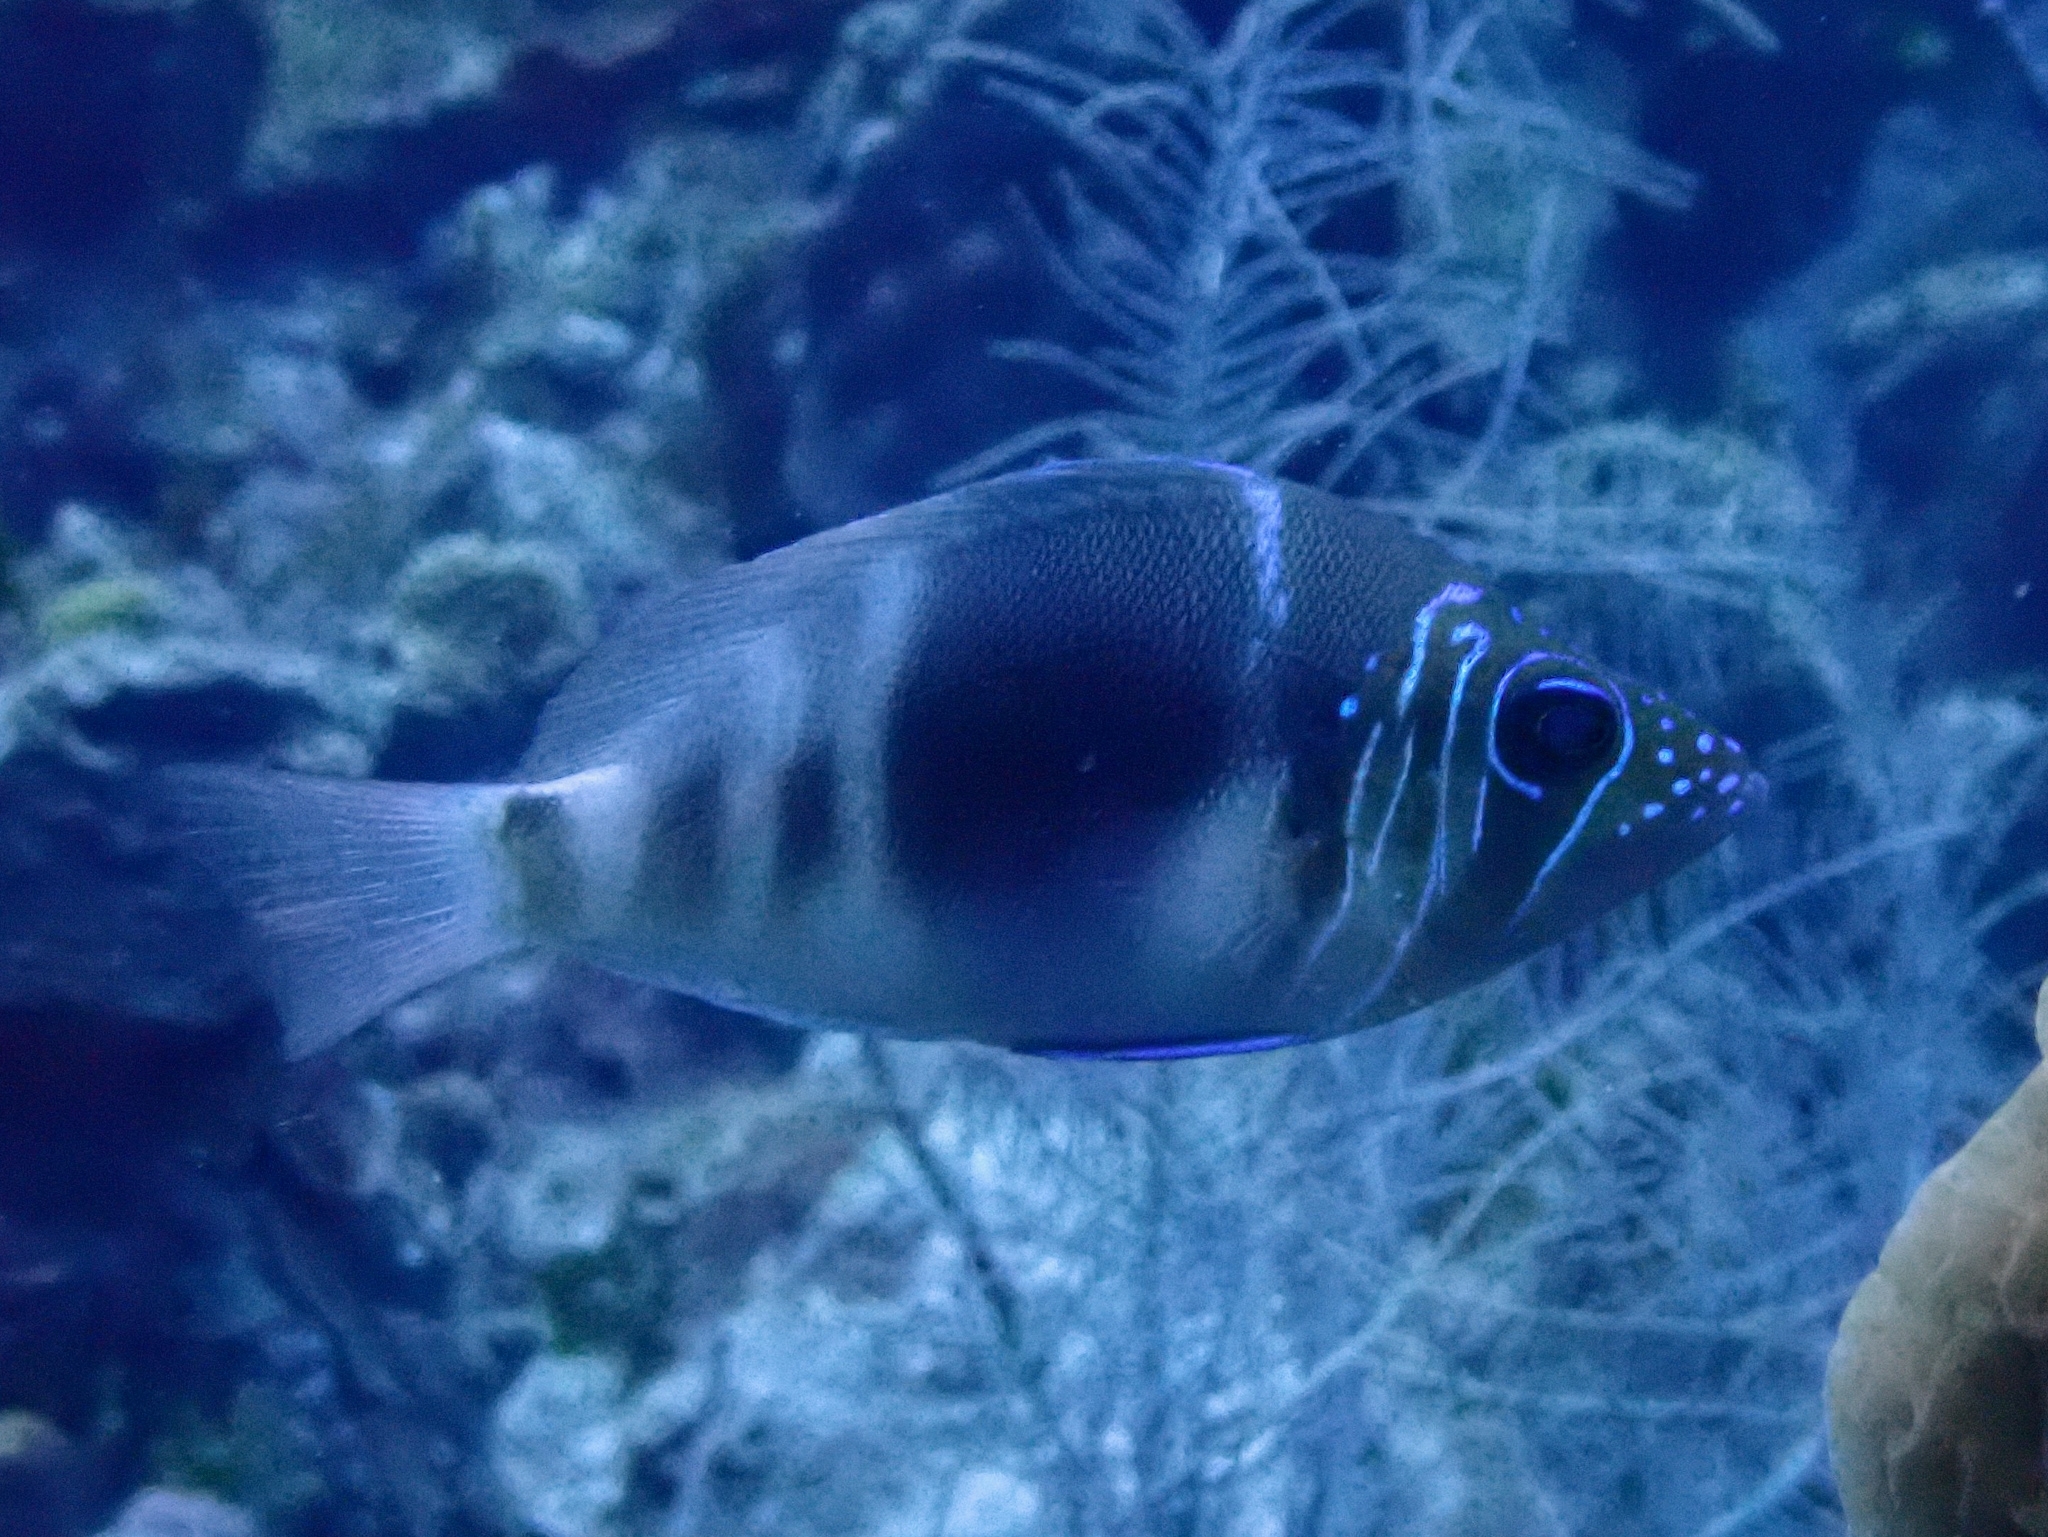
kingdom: Animalia
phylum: Chordata
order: Perciformes
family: Serranidae
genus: Hypoplectrus
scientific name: Hypoplectrus puella
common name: Barred hamlet
